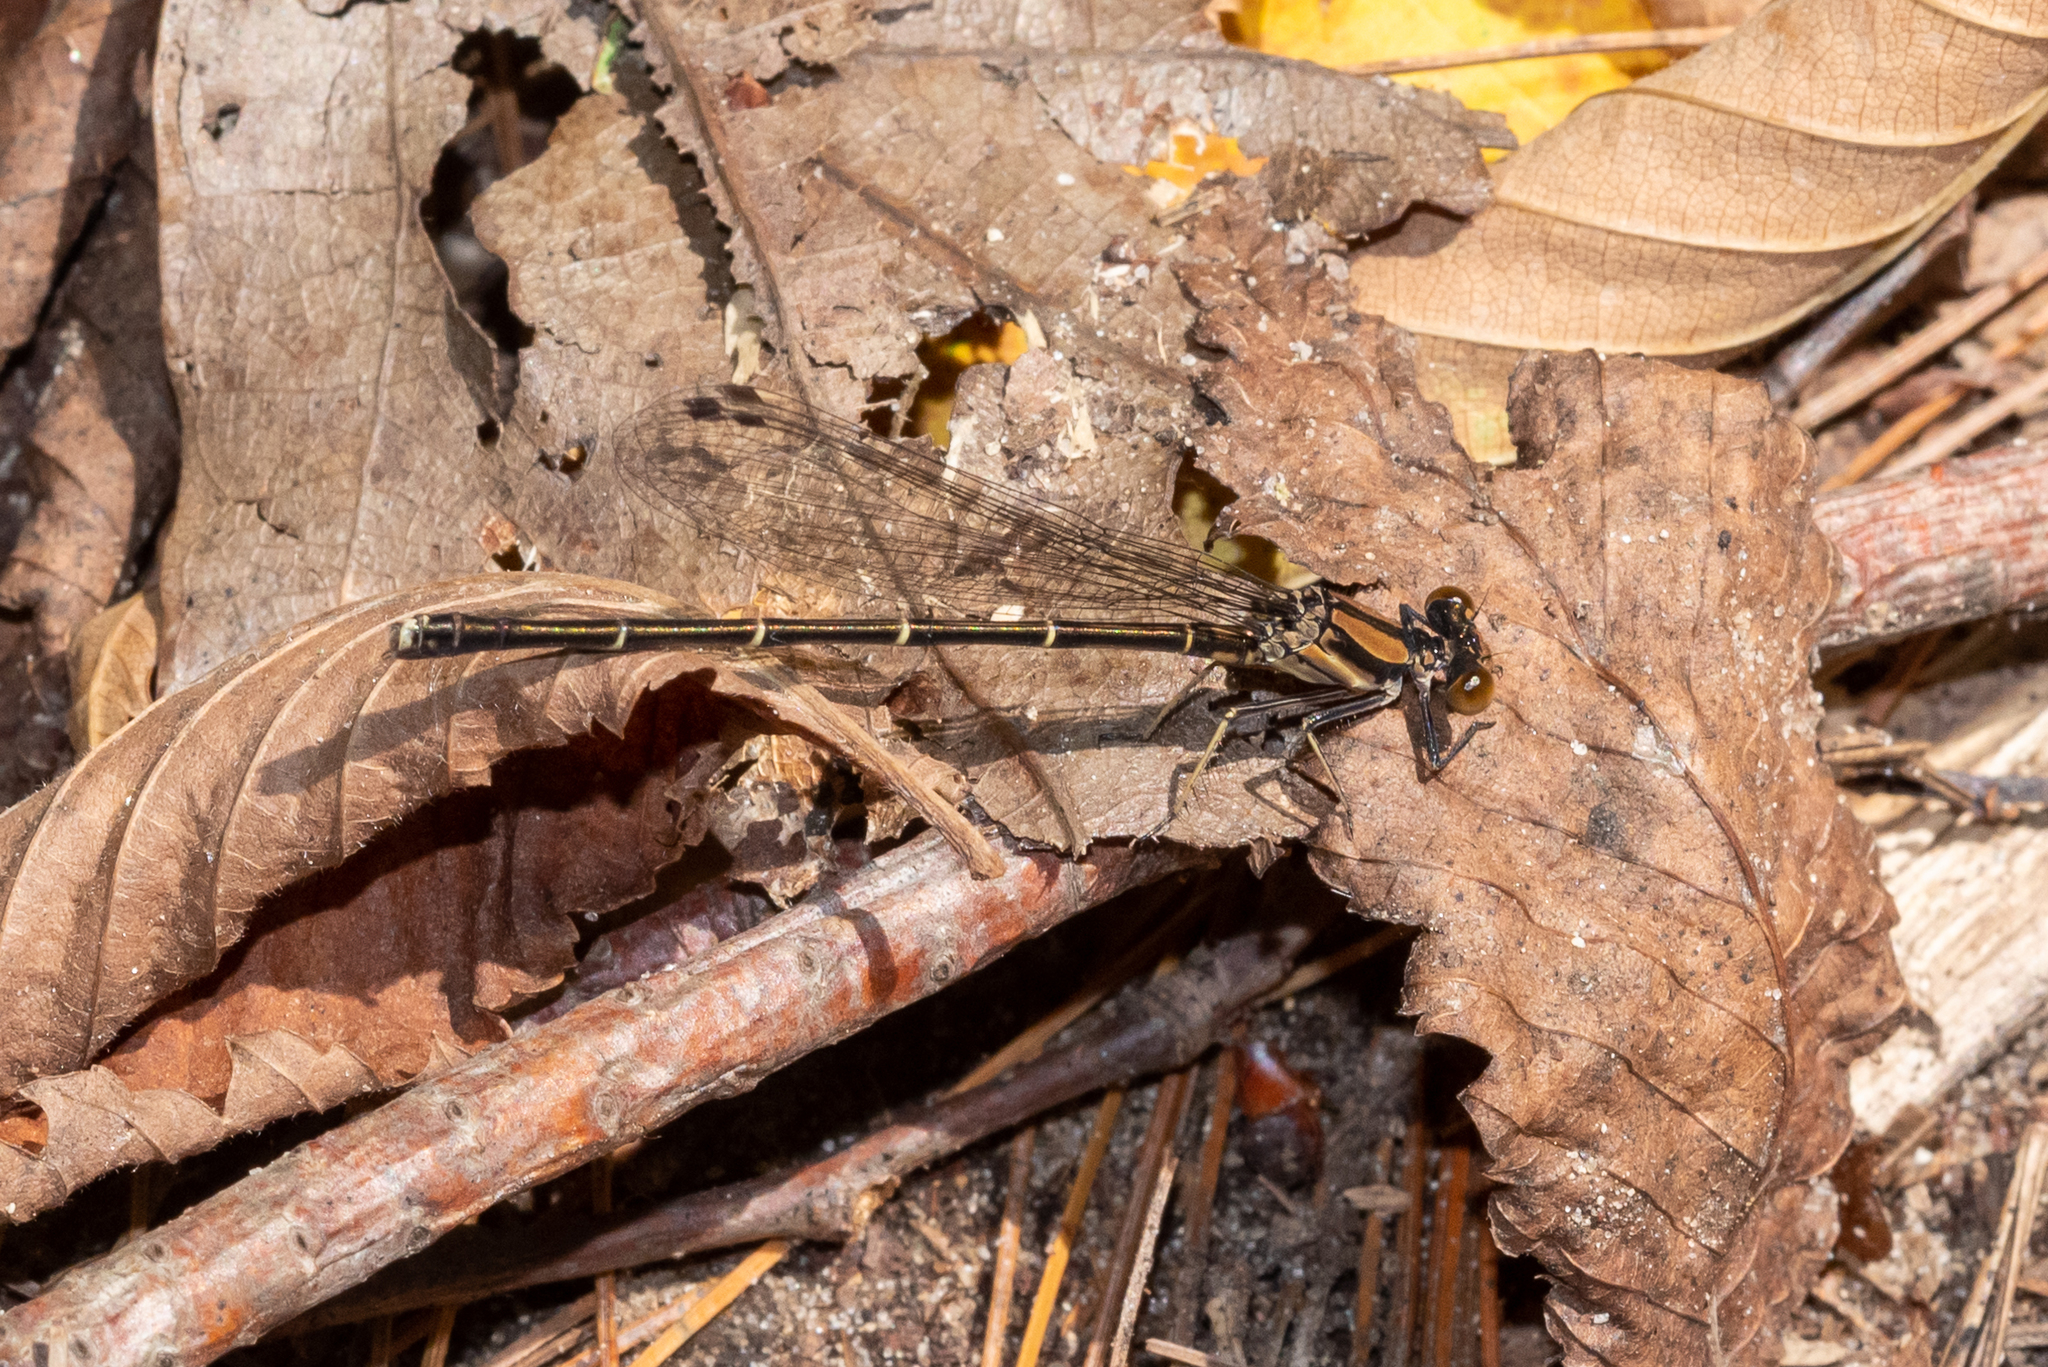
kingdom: Animalia
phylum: Arthropoda
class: Insecta
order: Odonata
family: Coenagrionidae
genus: Argia
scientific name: Argia tibialis
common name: Blue-tipped dancer
